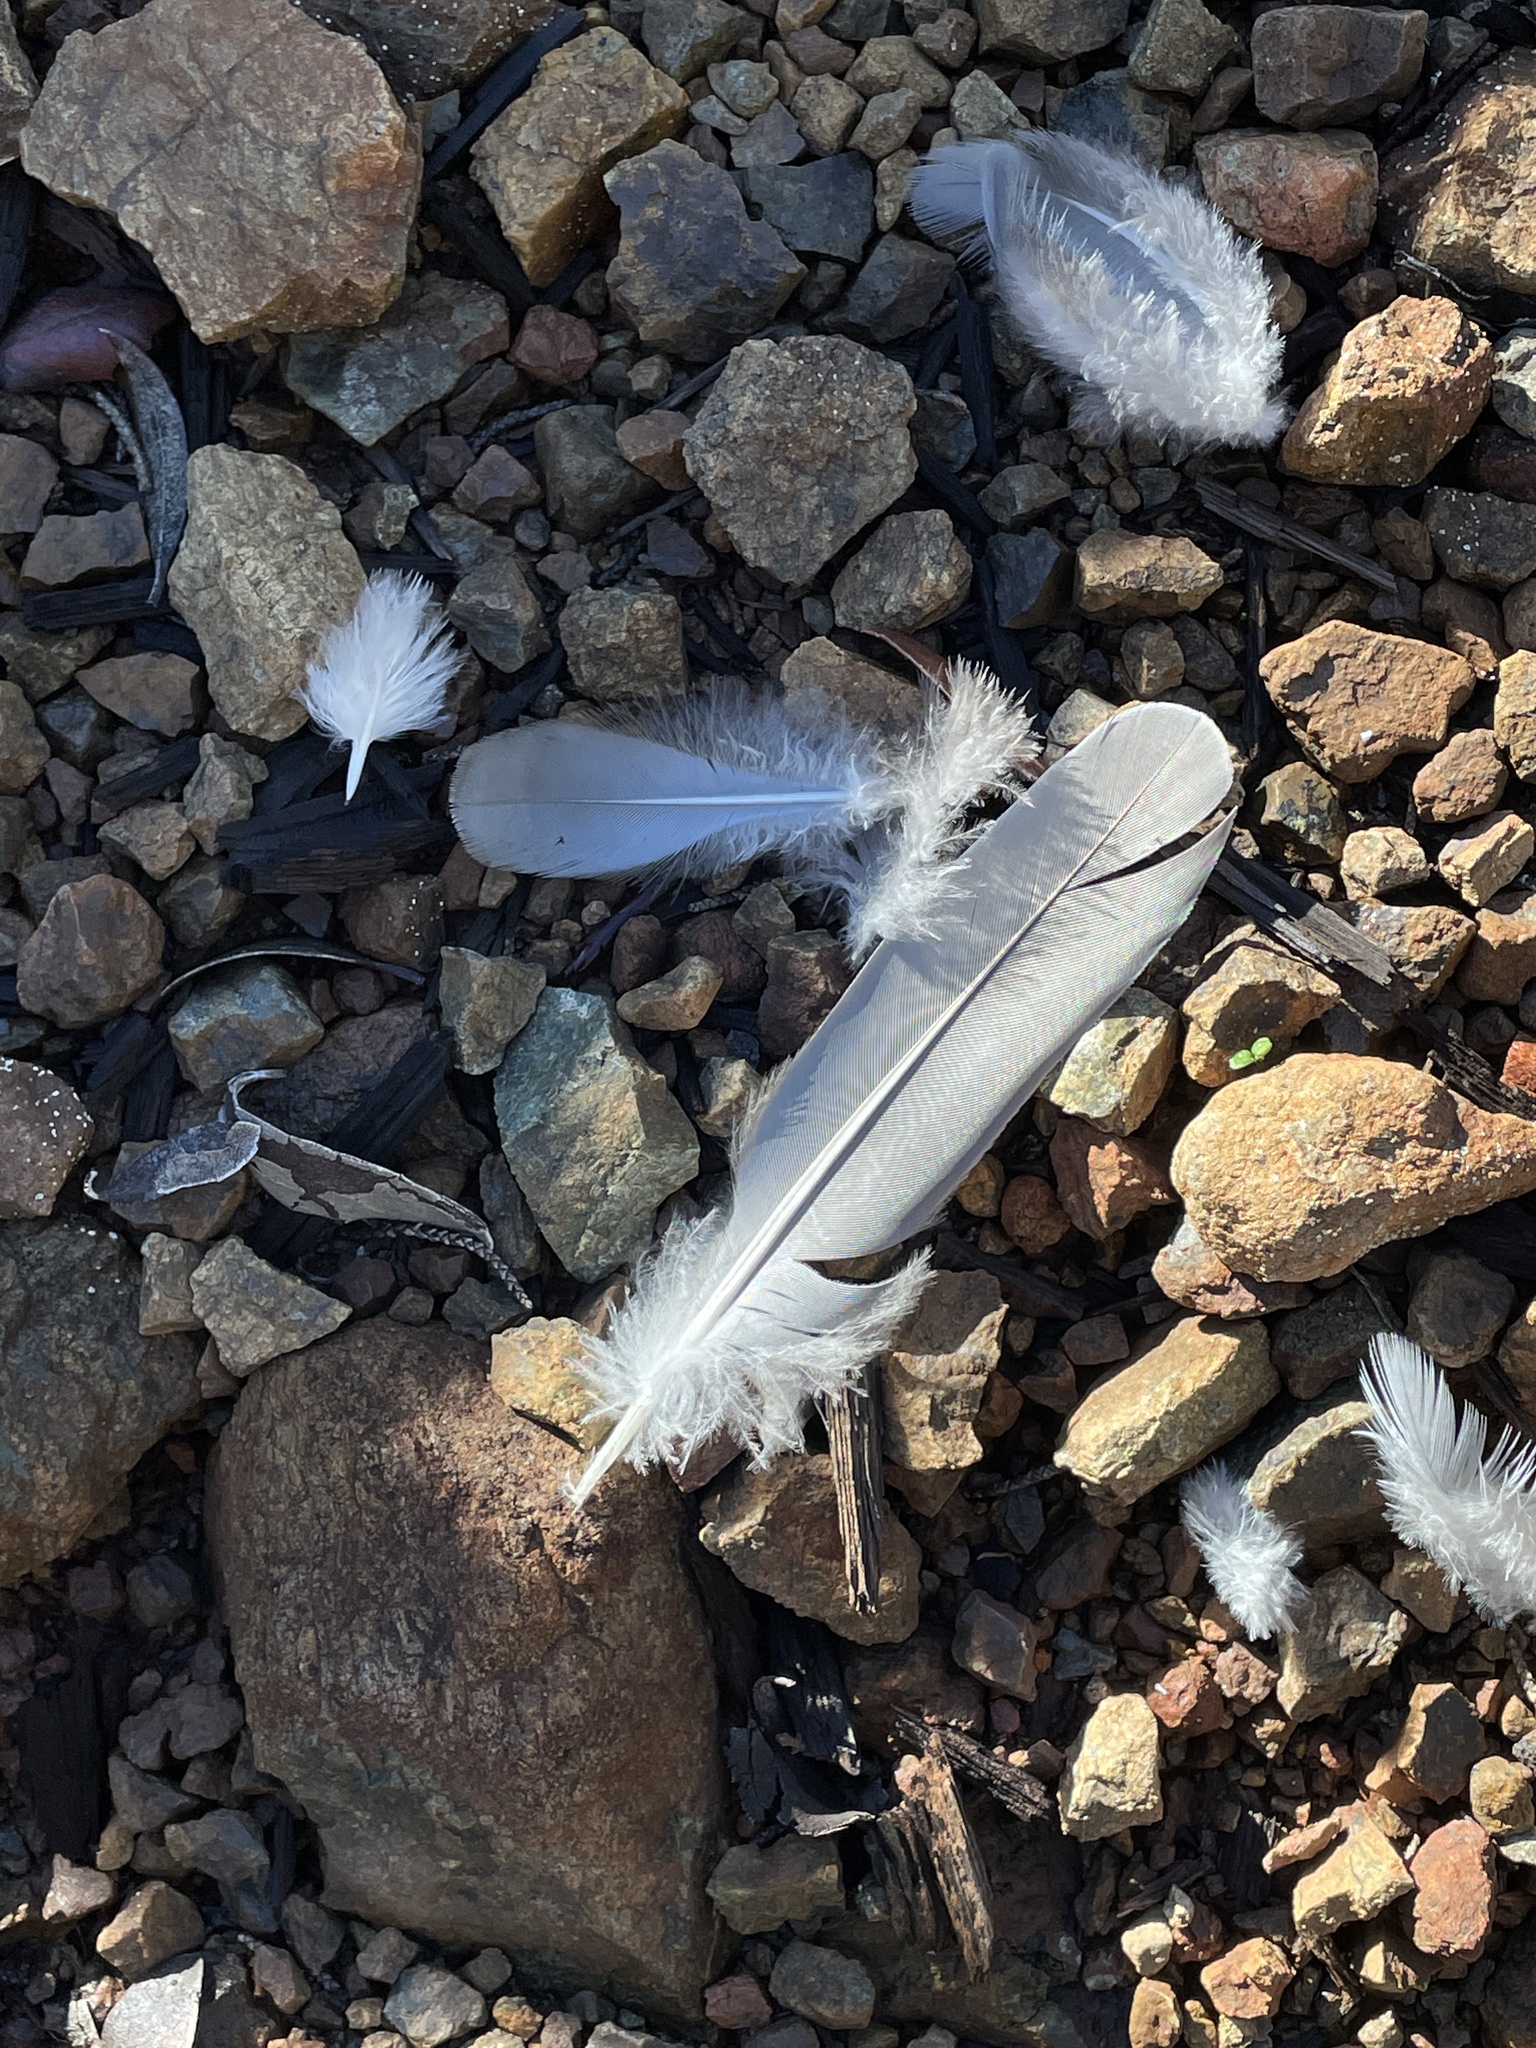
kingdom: Animalia
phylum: Chordata
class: Aves
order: Columbiformes
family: Columbidae
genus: Patagioenas
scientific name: Patagioenas fasciata
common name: Band-tailed pigeon
